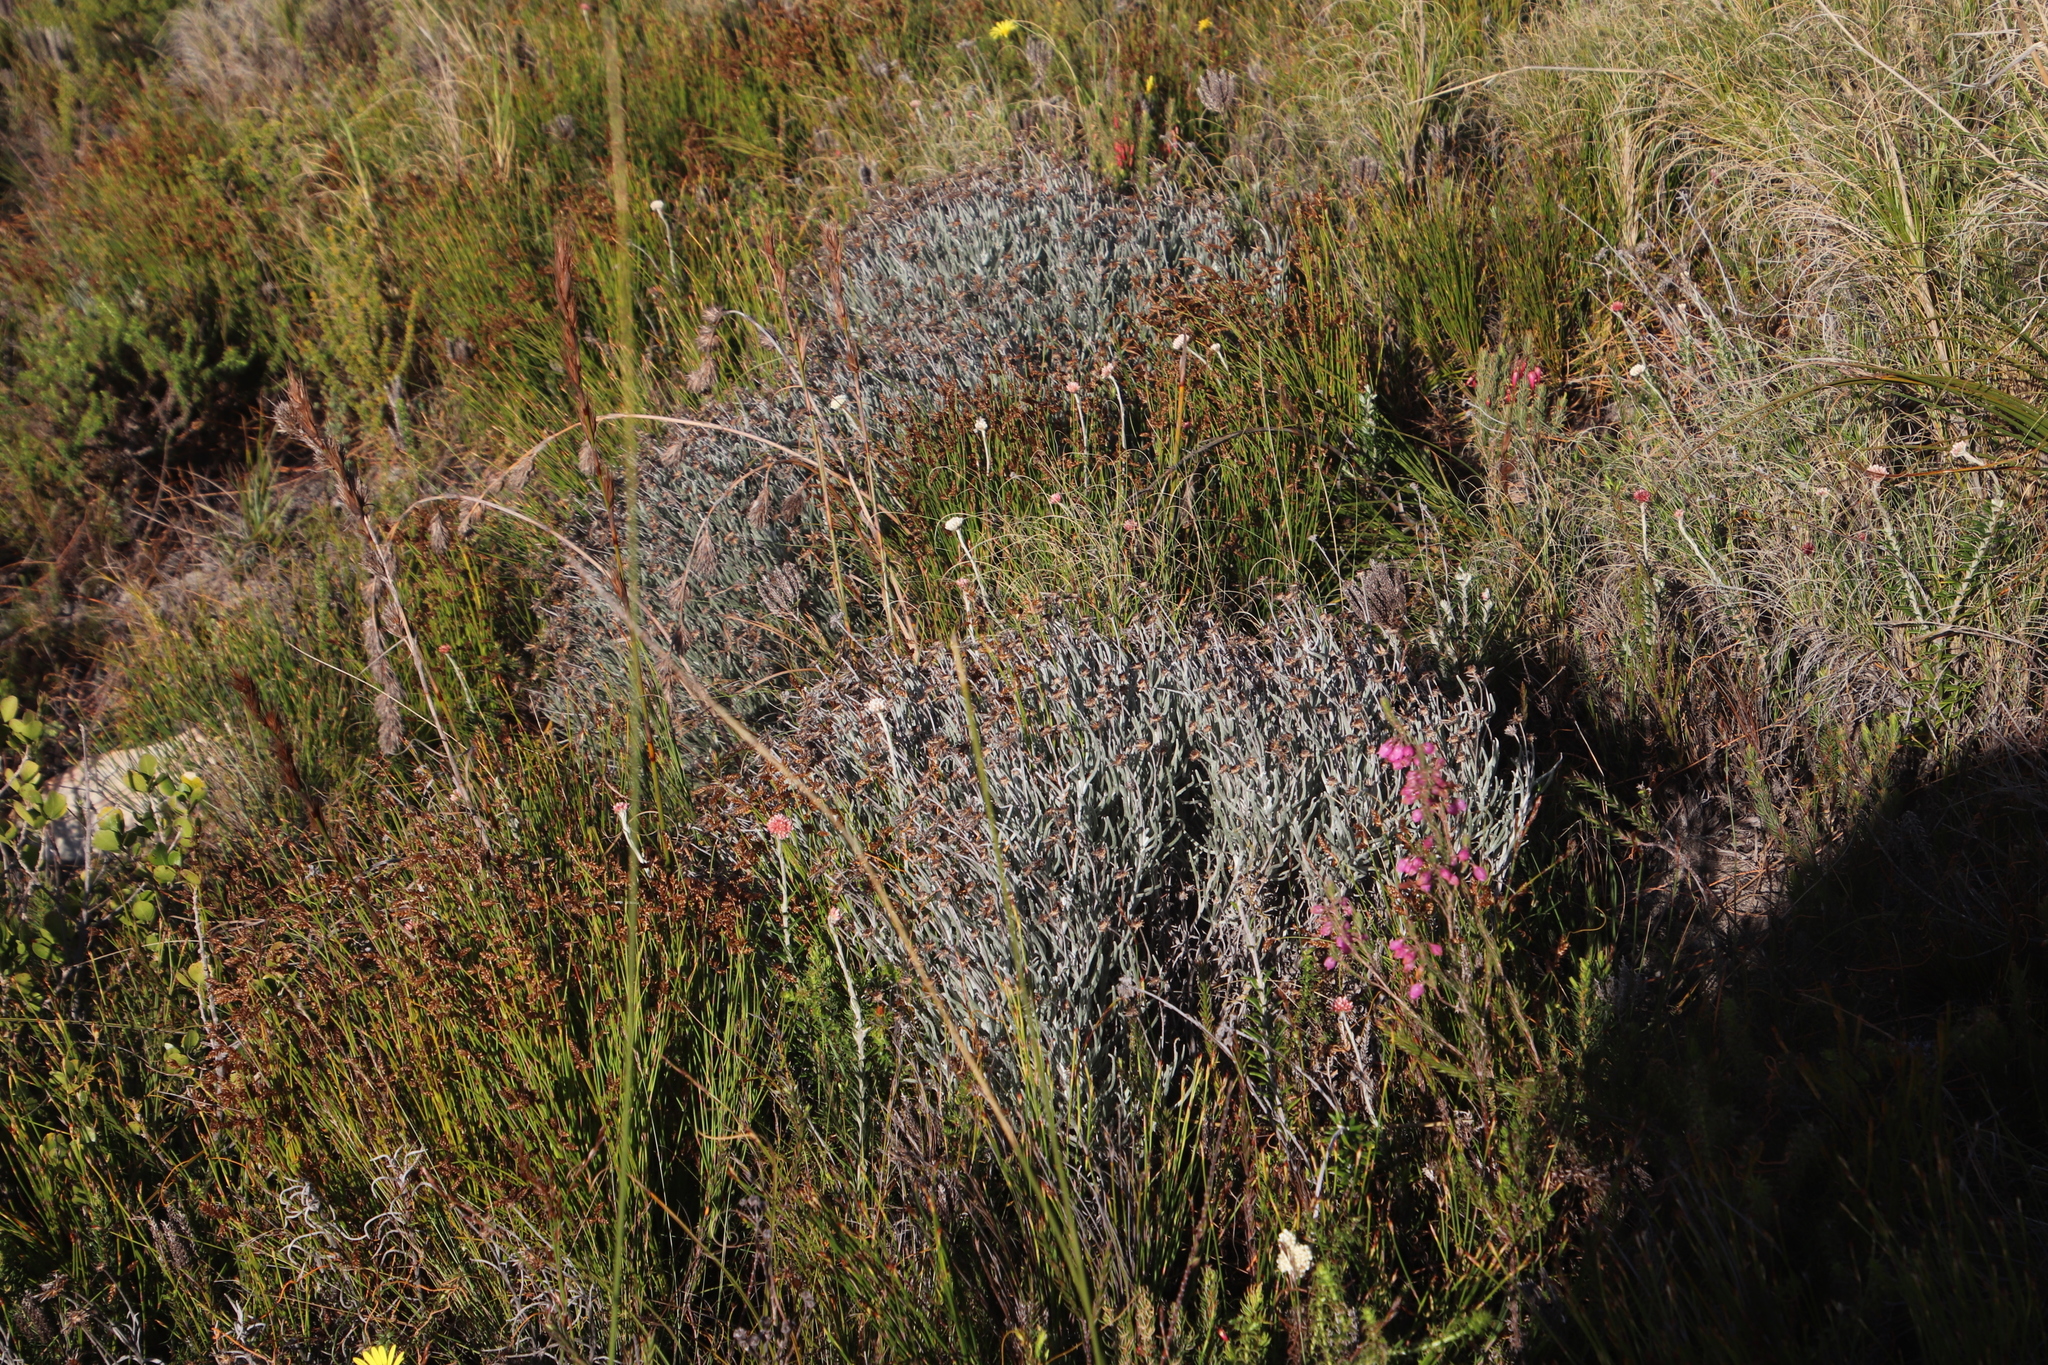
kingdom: Plantae
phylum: Tracheophyta
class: Magnoliopsida
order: Asterales
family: Asteraceae
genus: Syncarpha
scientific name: Syncarpha gnaphaloides
